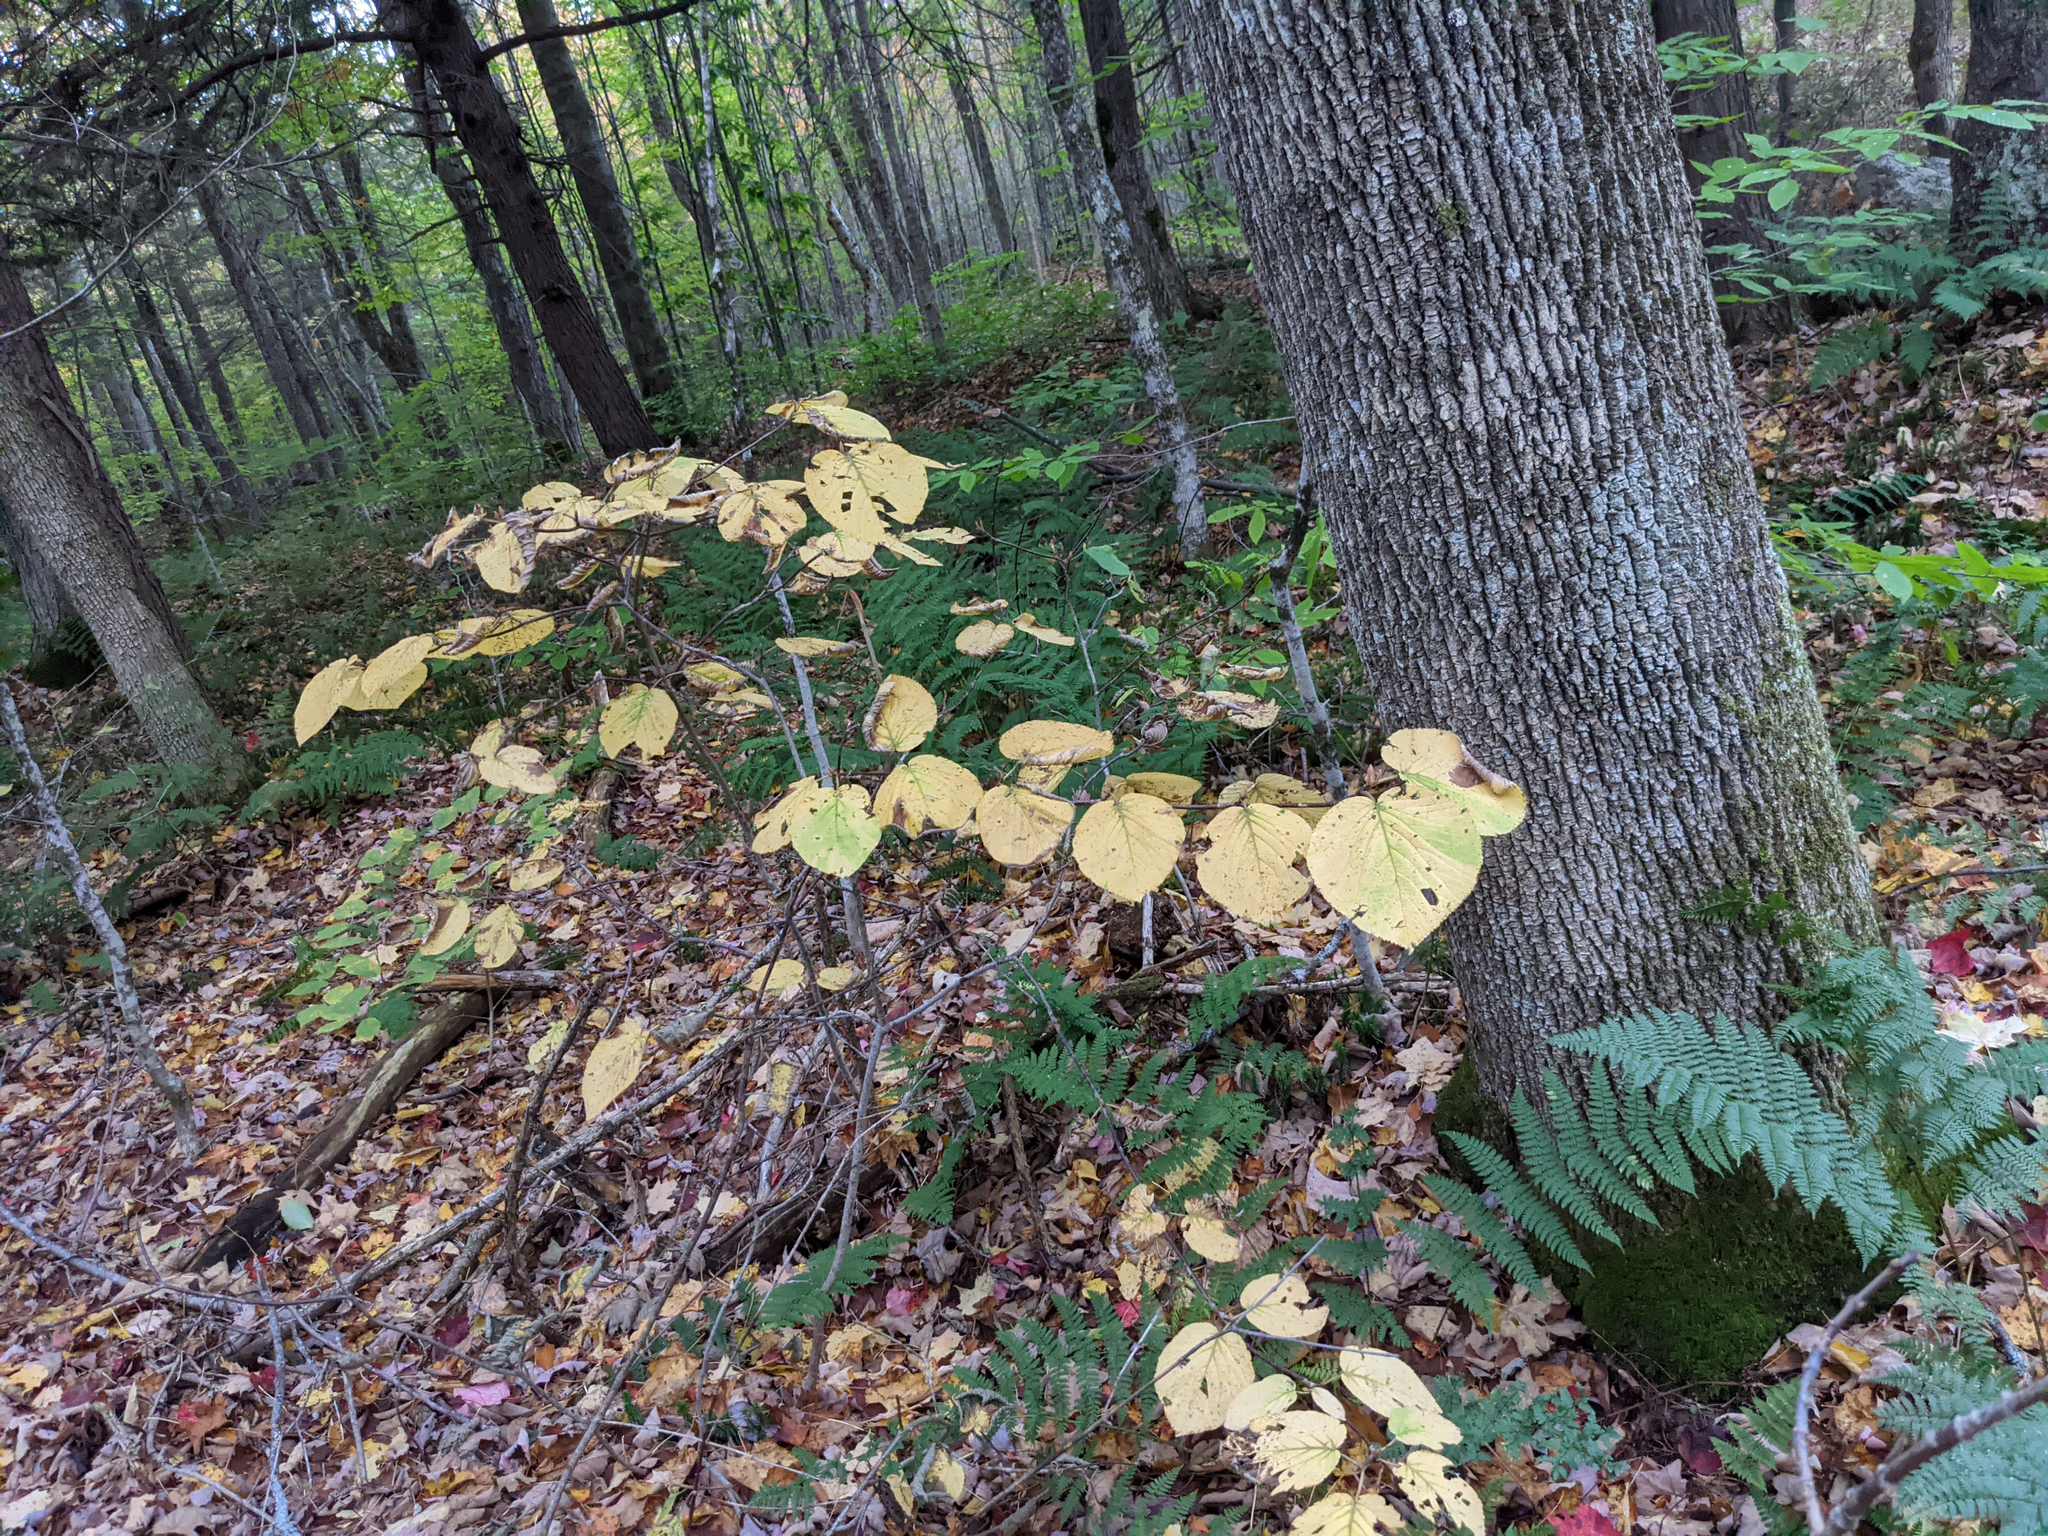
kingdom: Plantae
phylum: Tracheophyta
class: Magnoliopsida
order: Dipsacales
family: Viburnaceae
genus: Viburnum
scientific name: Viburnum lantanoides
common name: Hobblebush
